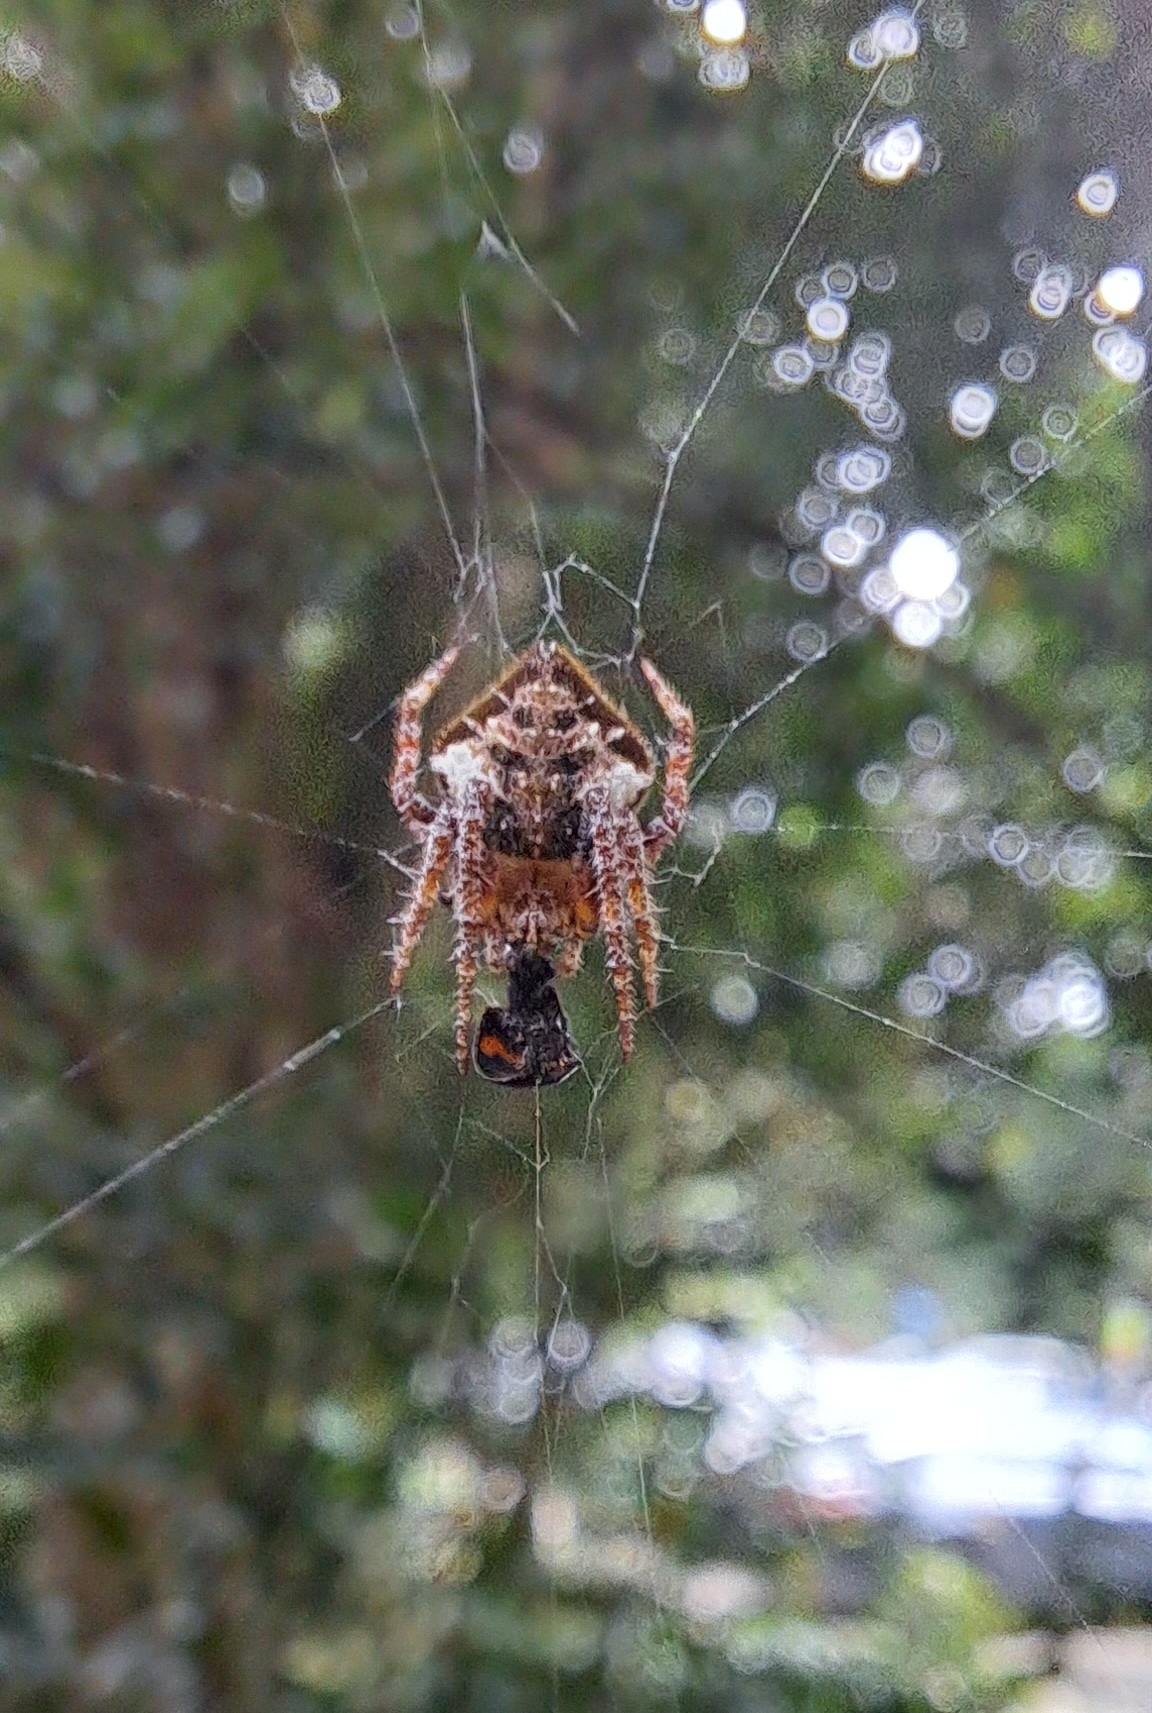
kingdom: Animalia
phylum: Arthropoda
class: Arachnida
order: Araneae
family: Araneidae
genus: Eriovixia
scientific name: Eriovixia laglaizei
